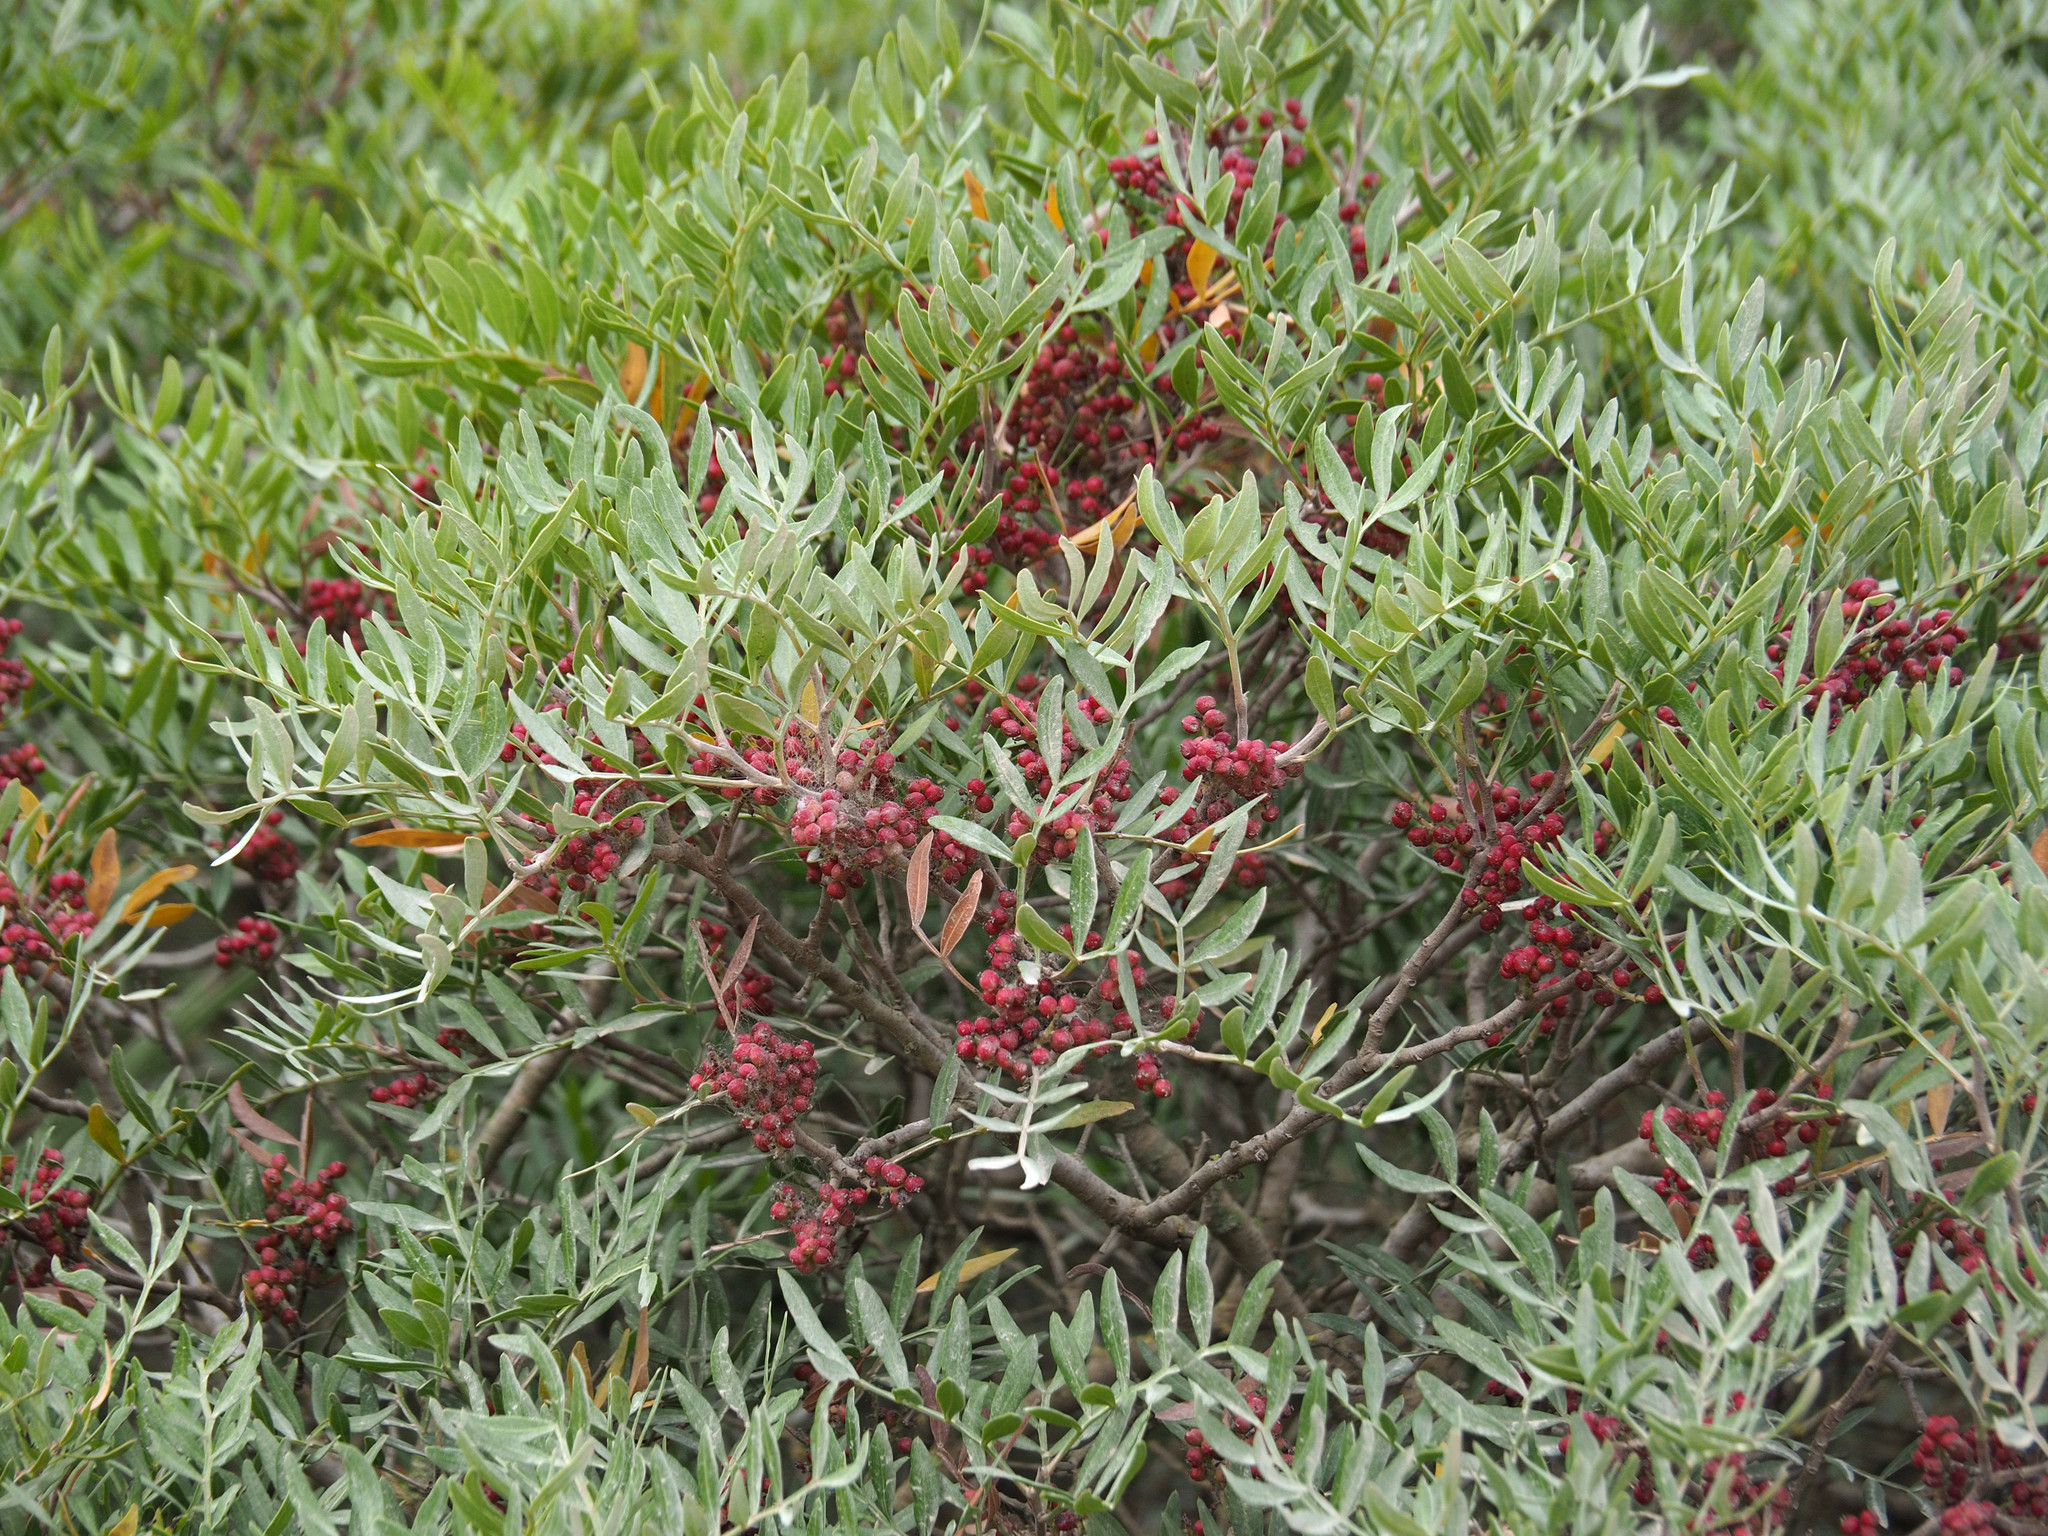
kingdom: Plantae
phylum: Tracheophyta
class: Magnoliopsida
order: Sapindales
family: Anacardiaceae
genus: Pistacia
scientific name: Pistacia lentiscus
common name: Lentisk
